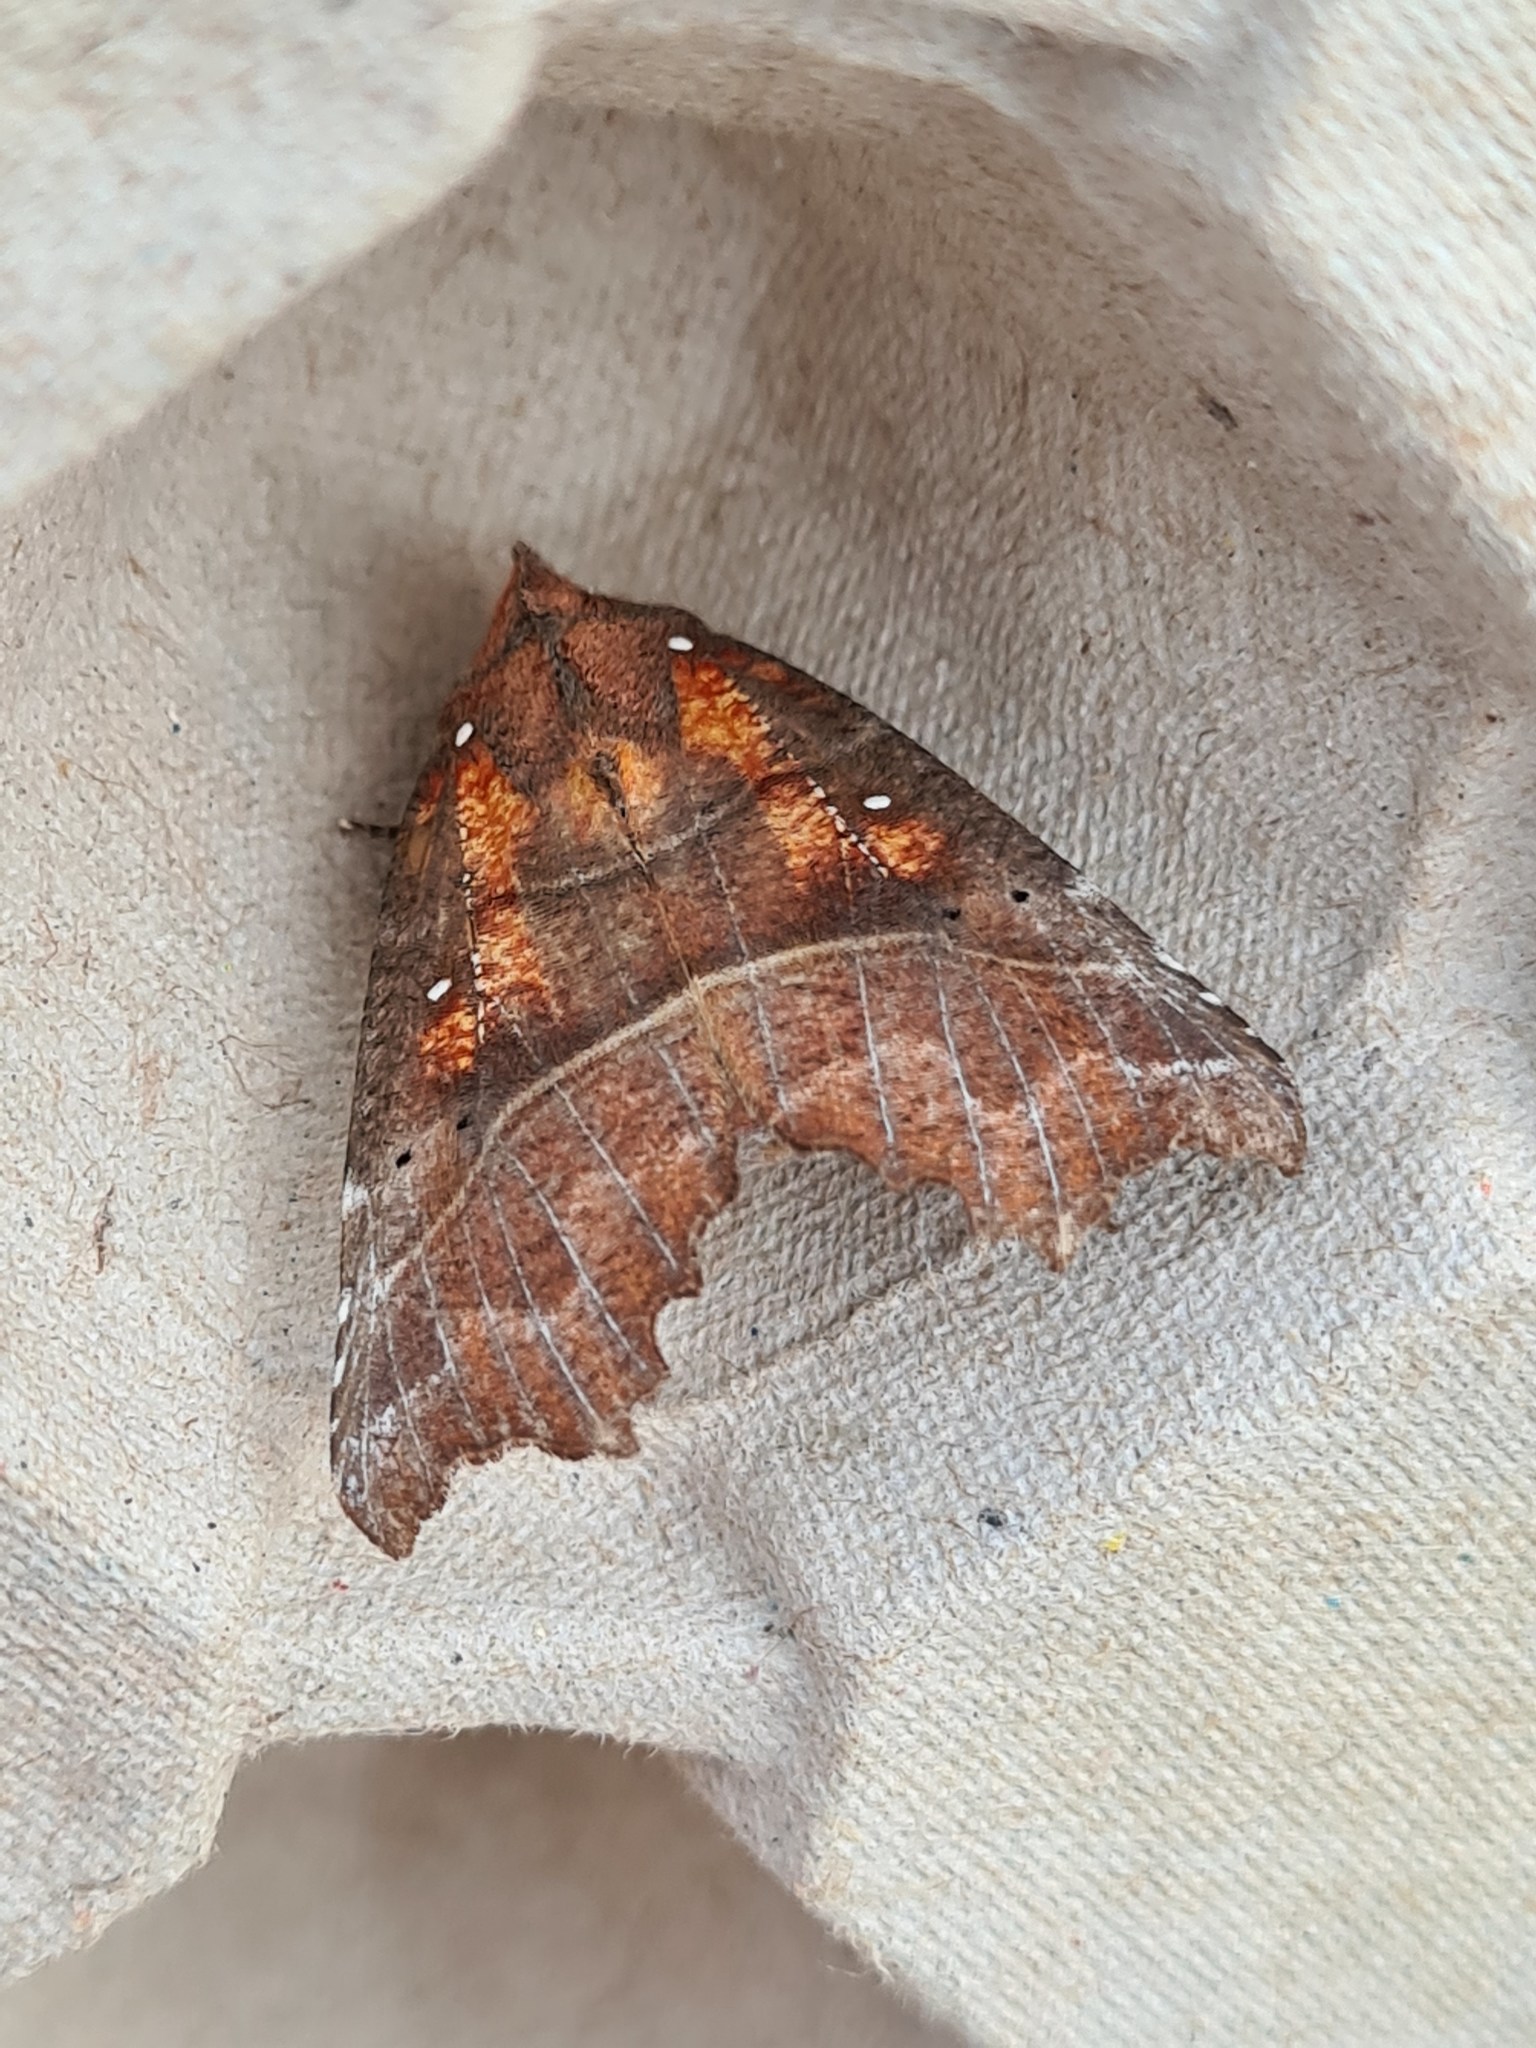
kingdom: Animalia
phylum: Arthropoda
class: Insecta
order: Lepidoptera
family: Erebidae
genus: Scoliopteryx
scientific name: Scoliopteryx libatrix
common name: Herald
